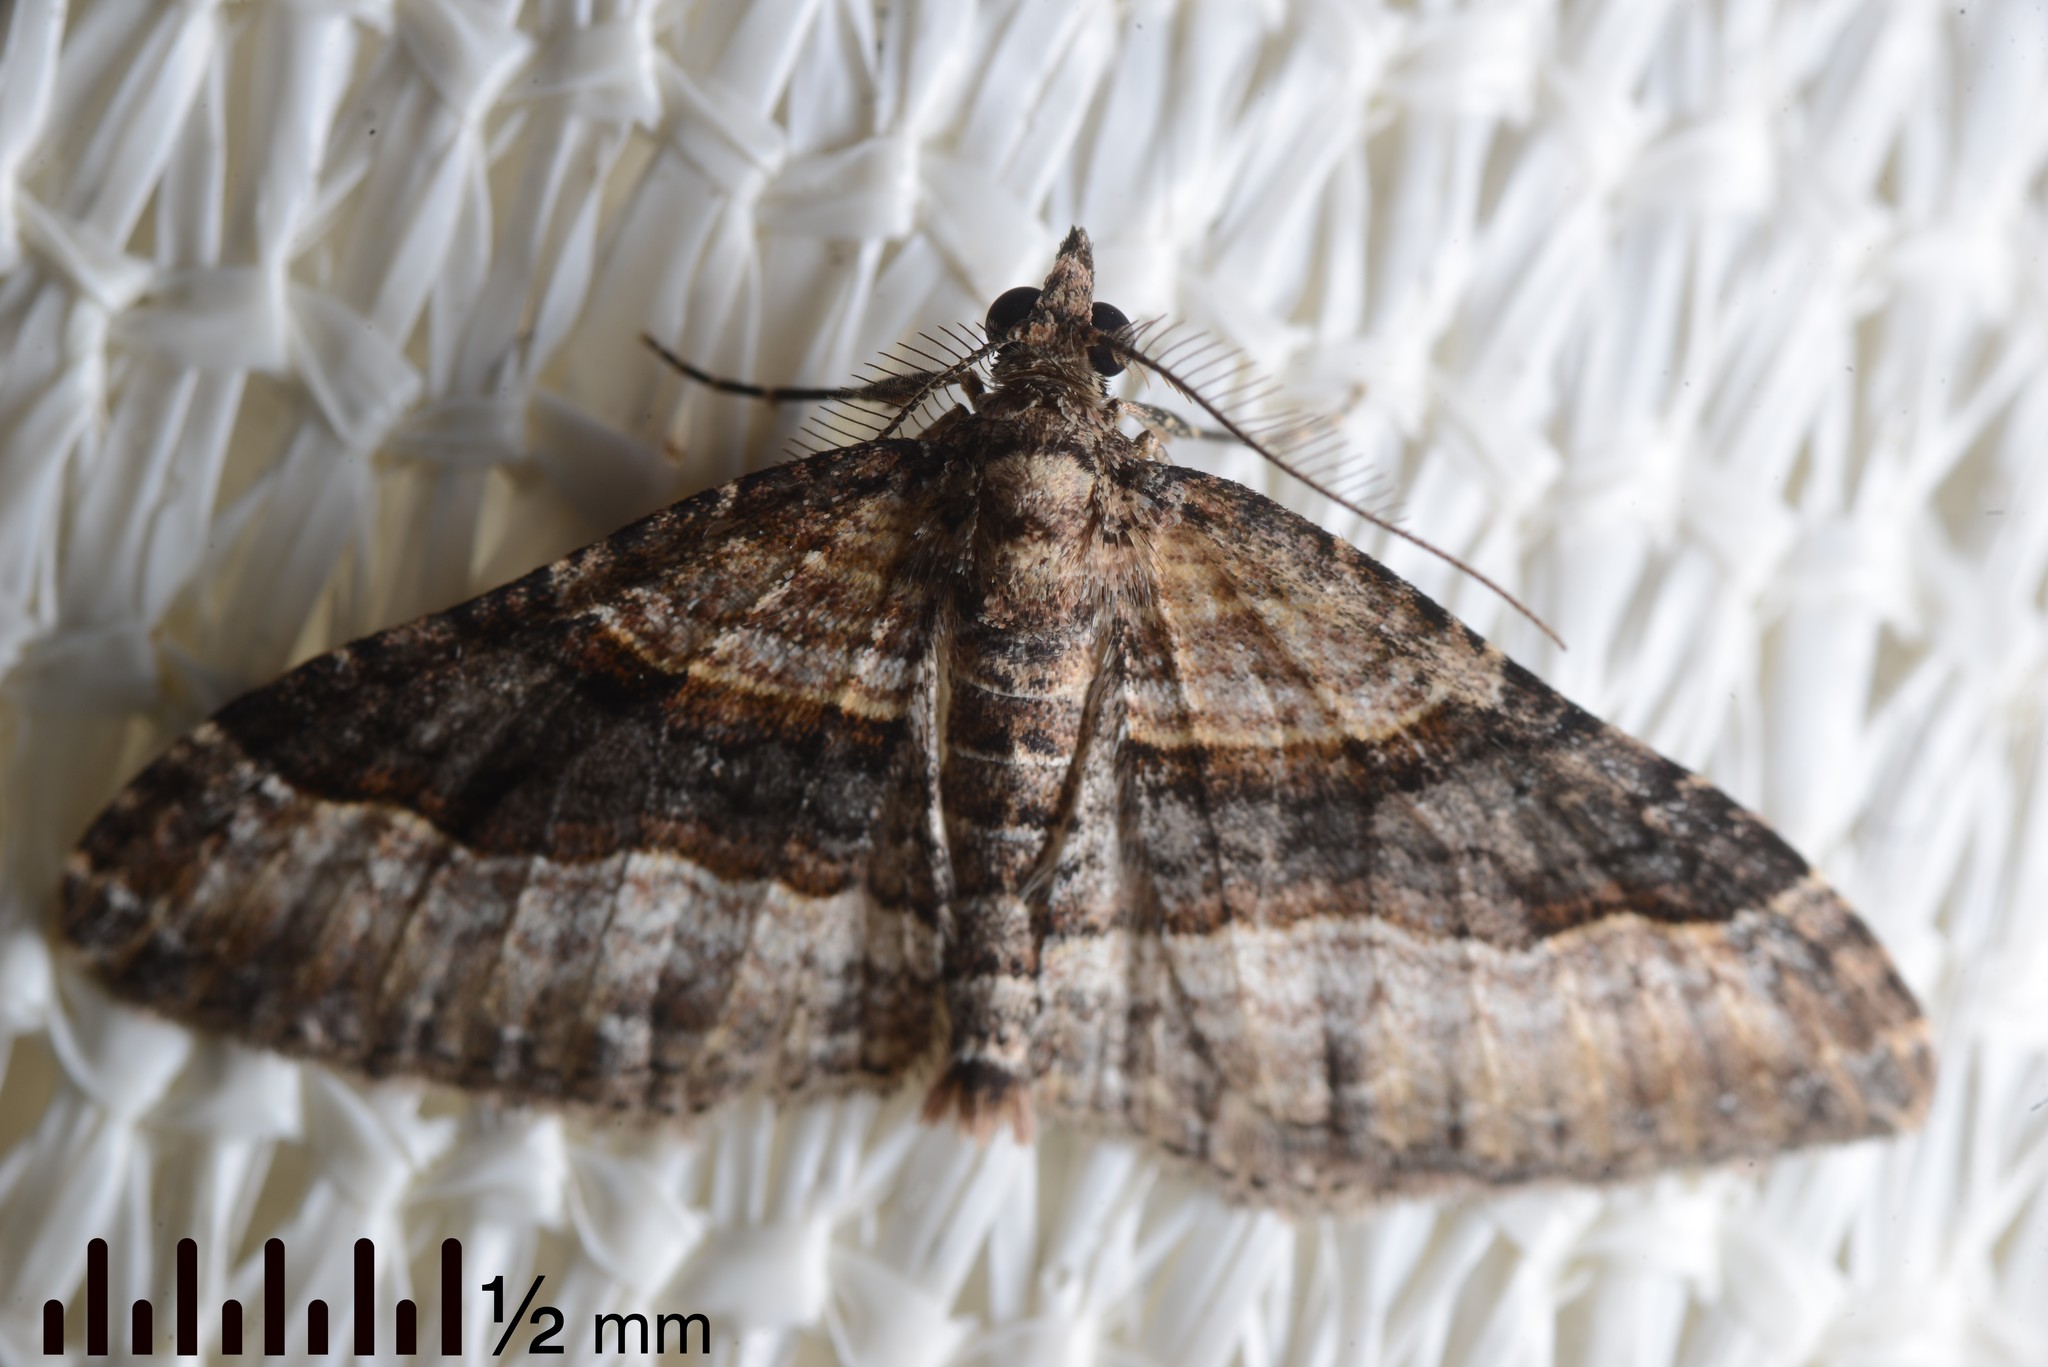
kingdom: Animalia
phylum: Arthropoda
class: Insecta
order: Lepidoptera
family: Geometridae
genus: Epyaxa
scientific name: Epyaxa lucidata
